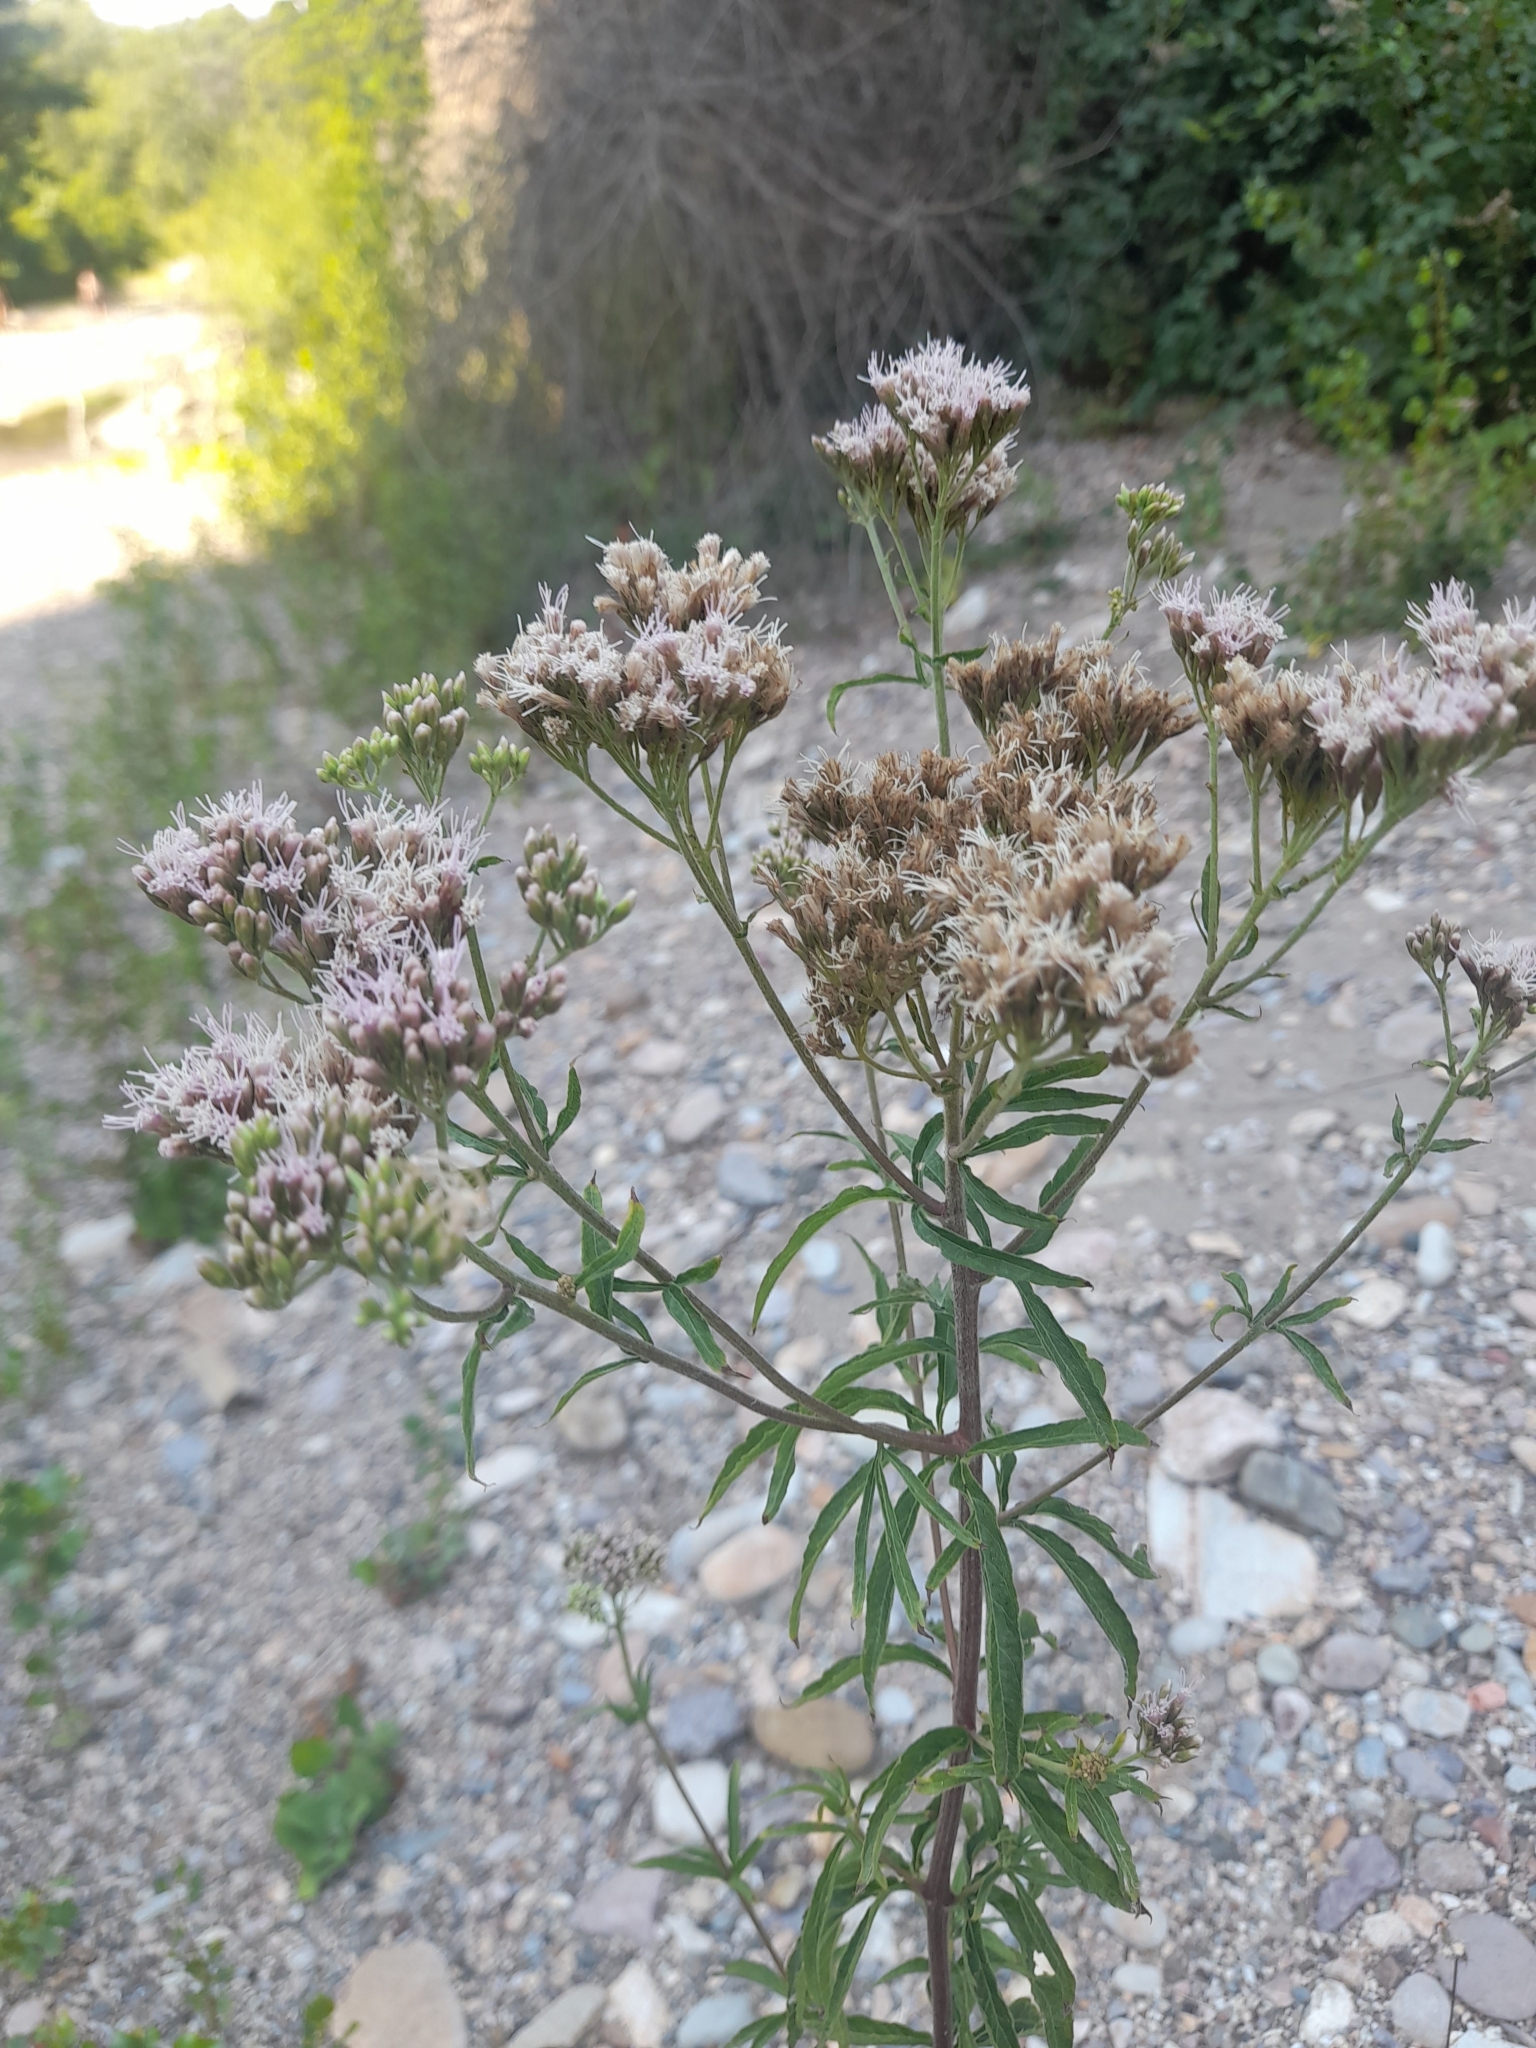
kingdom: Plantae
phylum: Tracheophyta
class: Magnoliopsida
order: Asterales
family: Asteraceae
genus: Eupatorium
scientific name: Eupatorium cannabinum
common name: Hemp-agrimony
